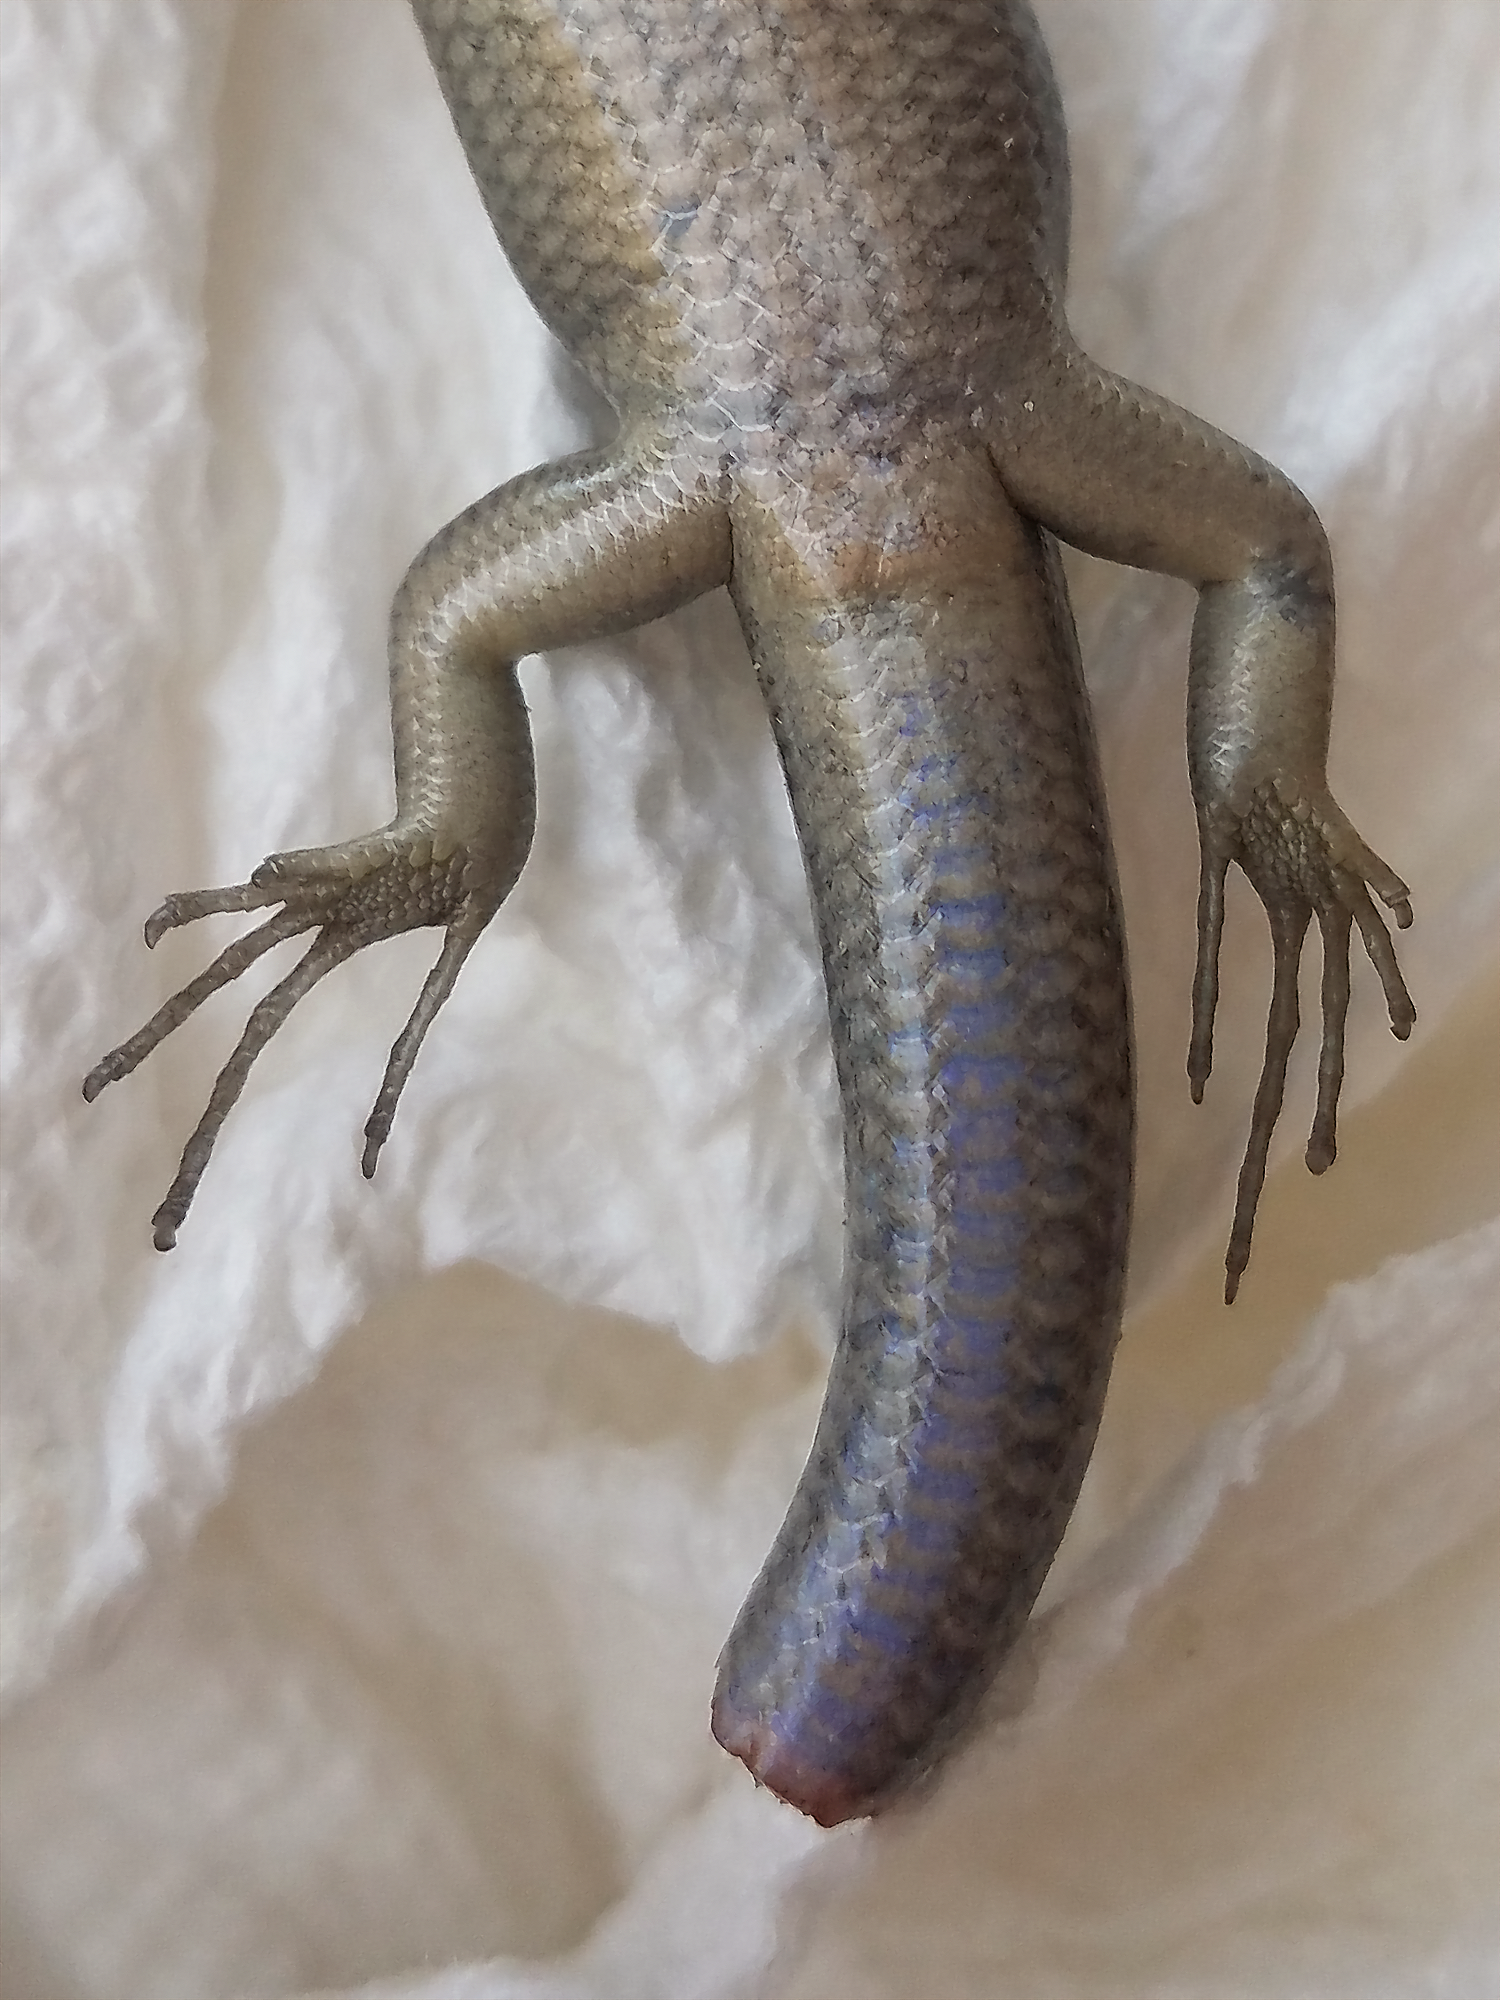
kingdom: Animalia
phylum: Chordata
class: Squamata
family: Scincidae
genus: Plestiodon
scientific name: Plestiodon fasciatus
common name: Five-lined skink
